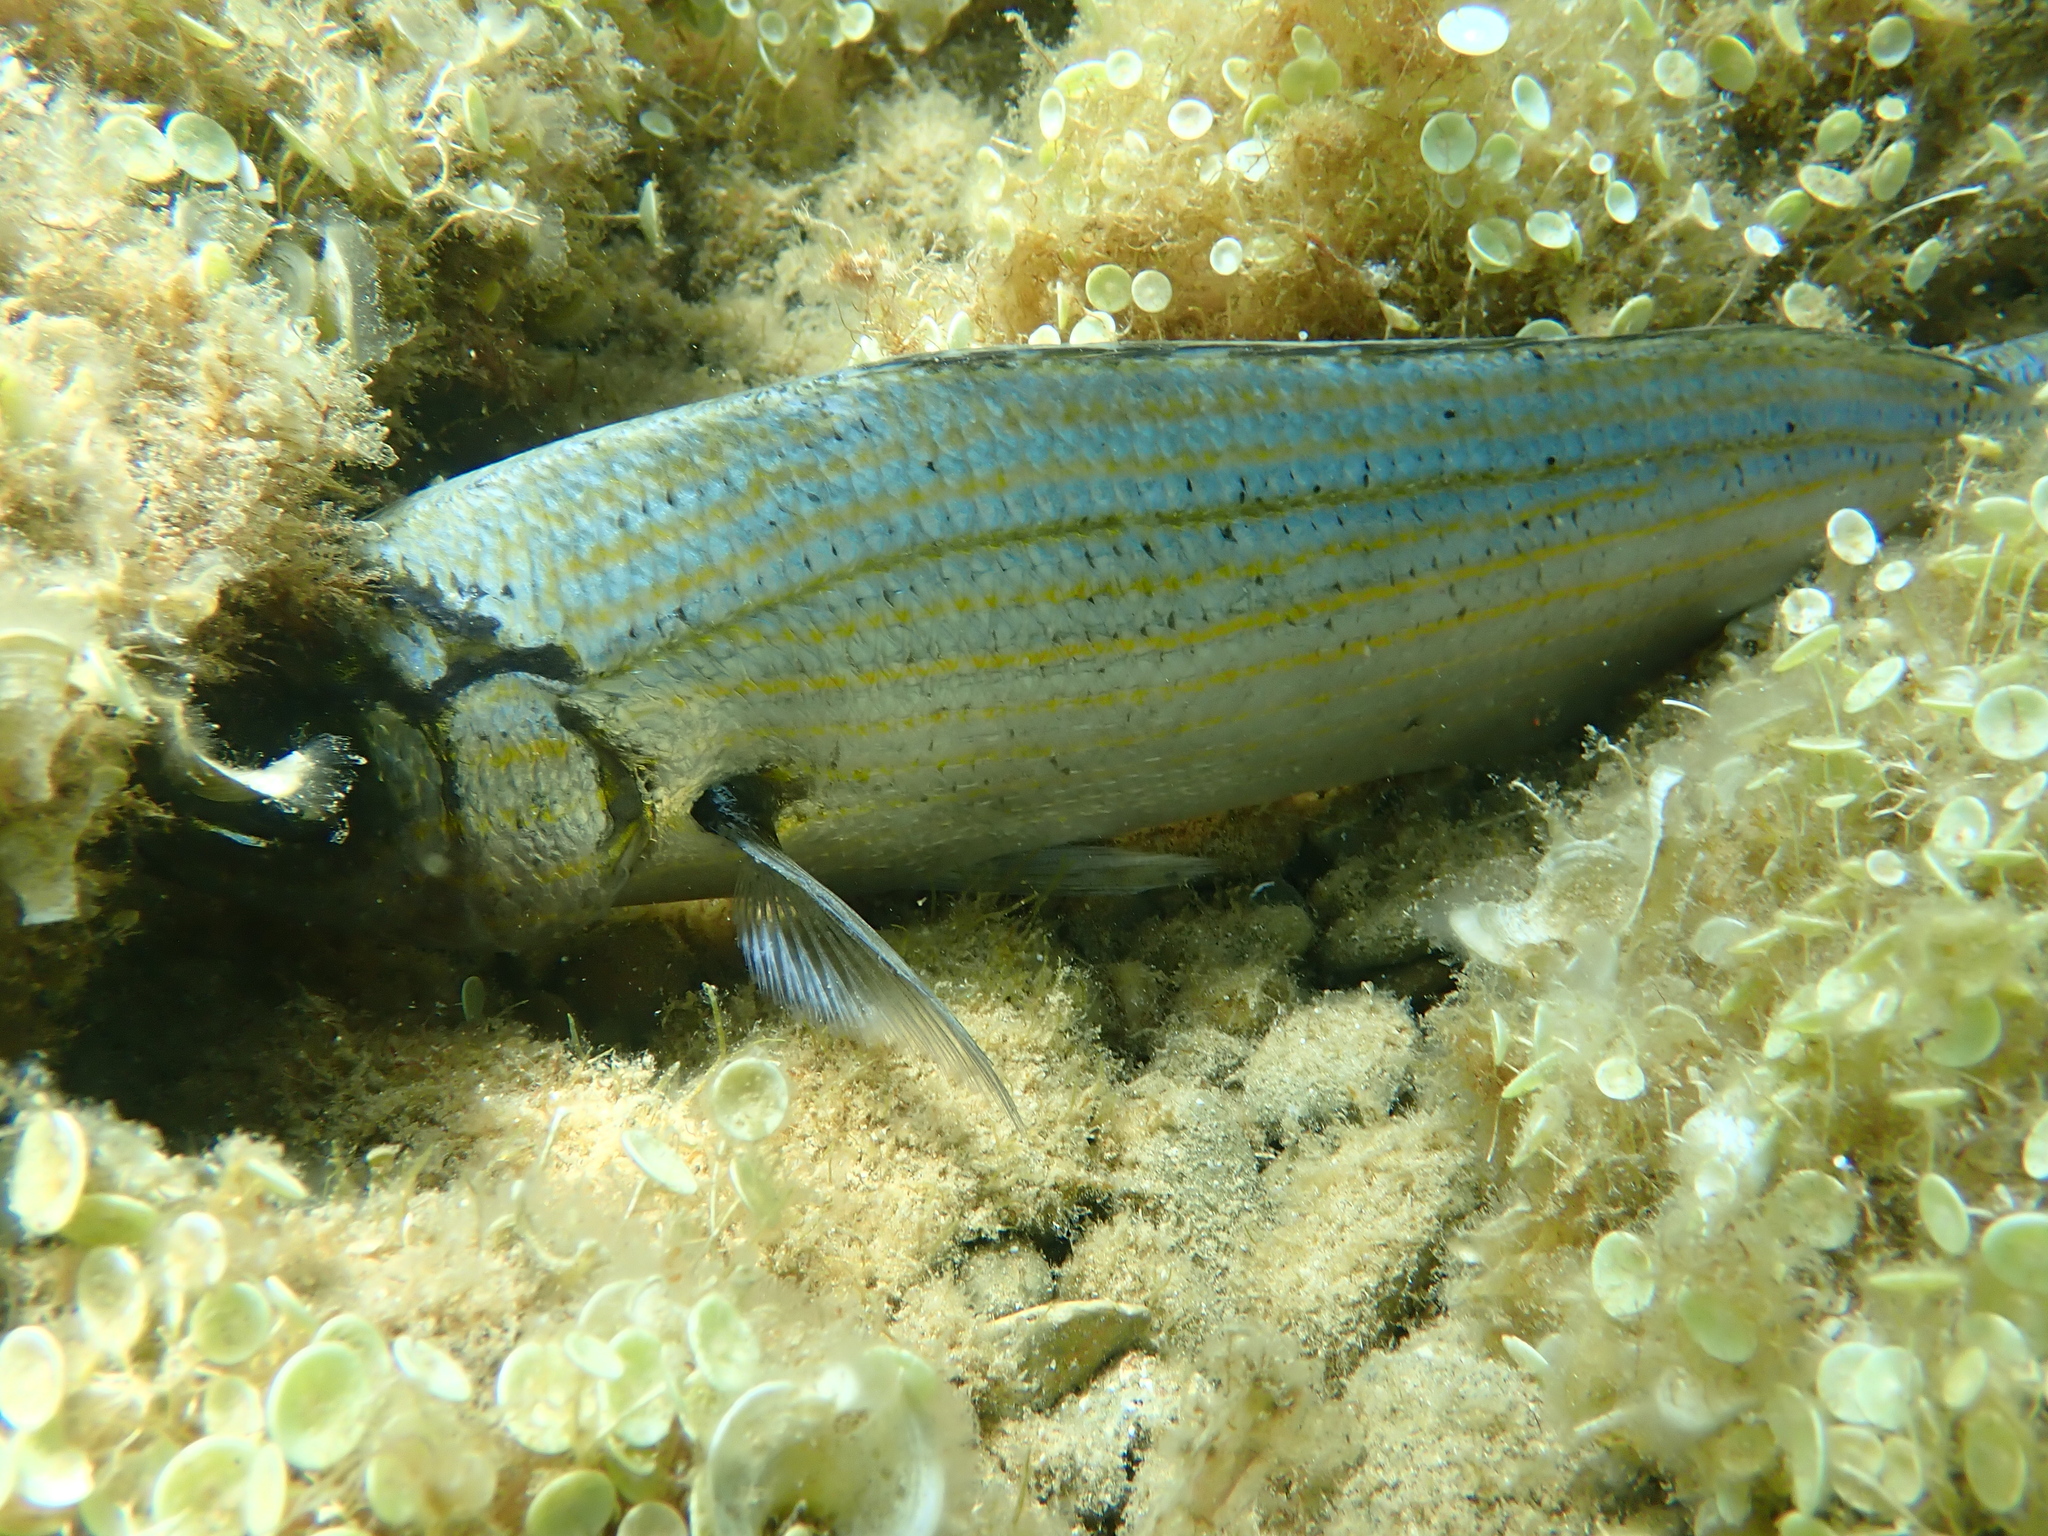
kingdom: Animalia
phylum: Chordata
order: Perciformes
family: Sparidae
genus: Sarpa
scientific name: Sarpa salpa
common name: Salema
